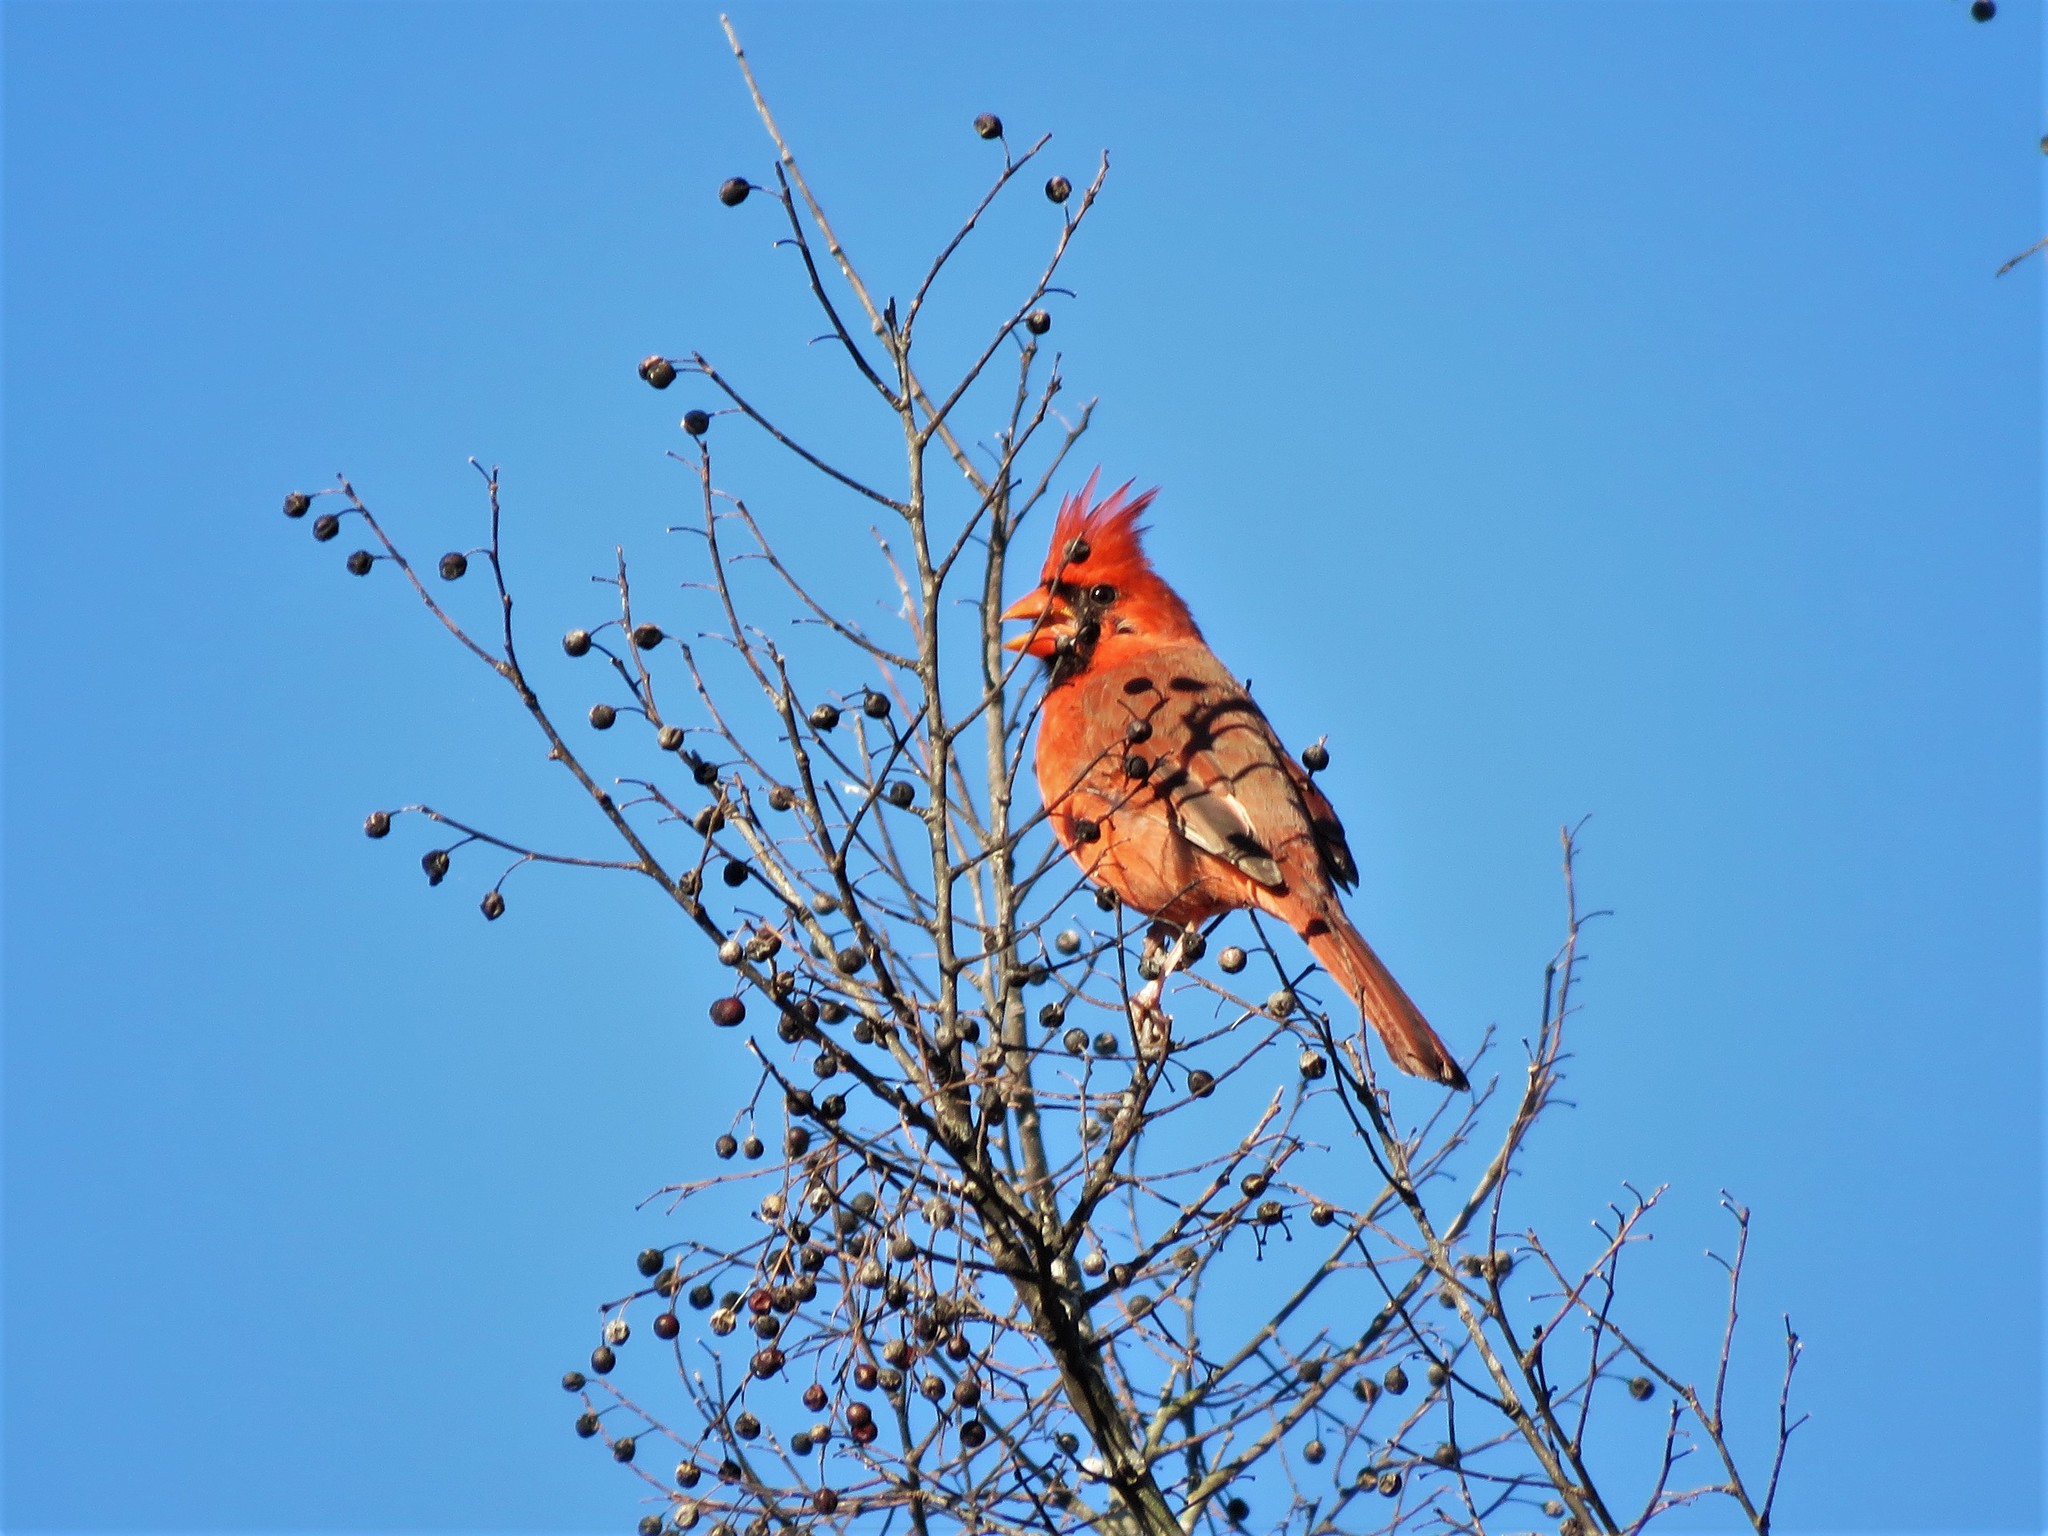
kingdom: Animalia
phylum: Chordata
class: Aves
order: Passeriformes
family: Cardinalidae
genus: Cardinalis
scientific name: Cardinalis cardinalis
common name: Northern cardinal
